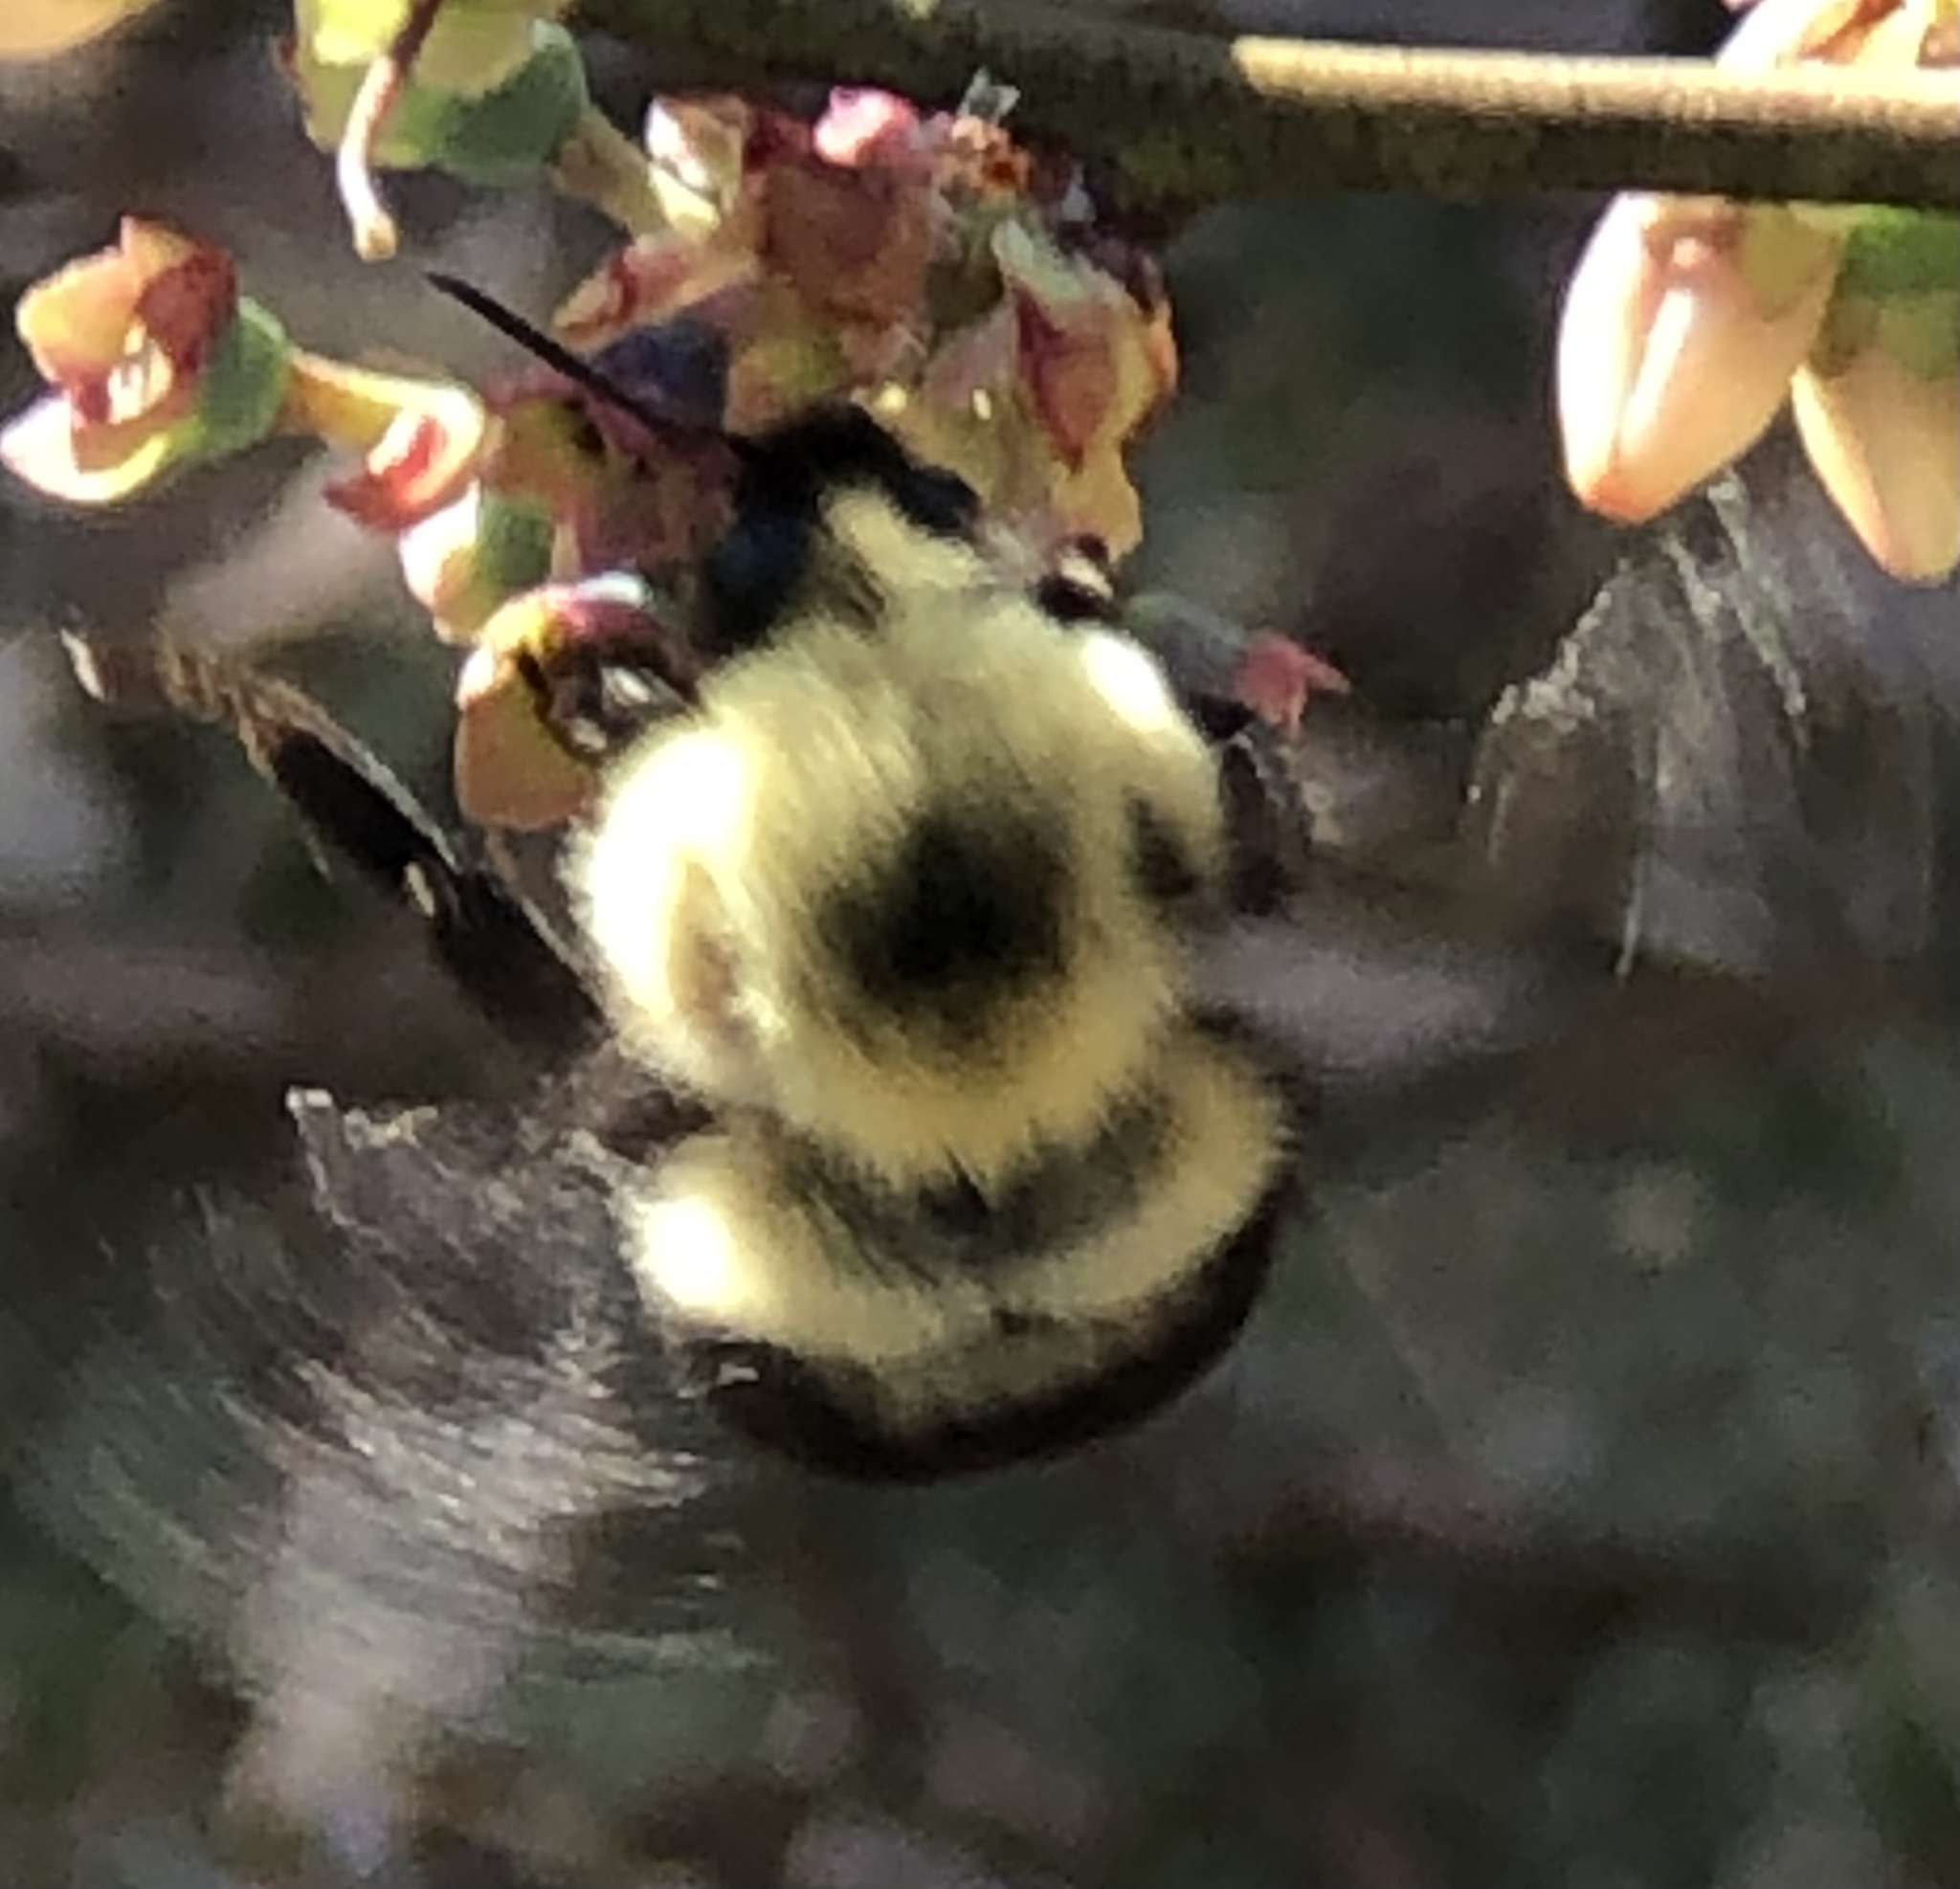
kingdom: Animalia
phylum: Arthropoda
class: Insecta
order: Hymenoptera
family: Apidae
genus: Bombus
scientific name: Bombus bimaculatus
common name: Two-spotted bumble bee
